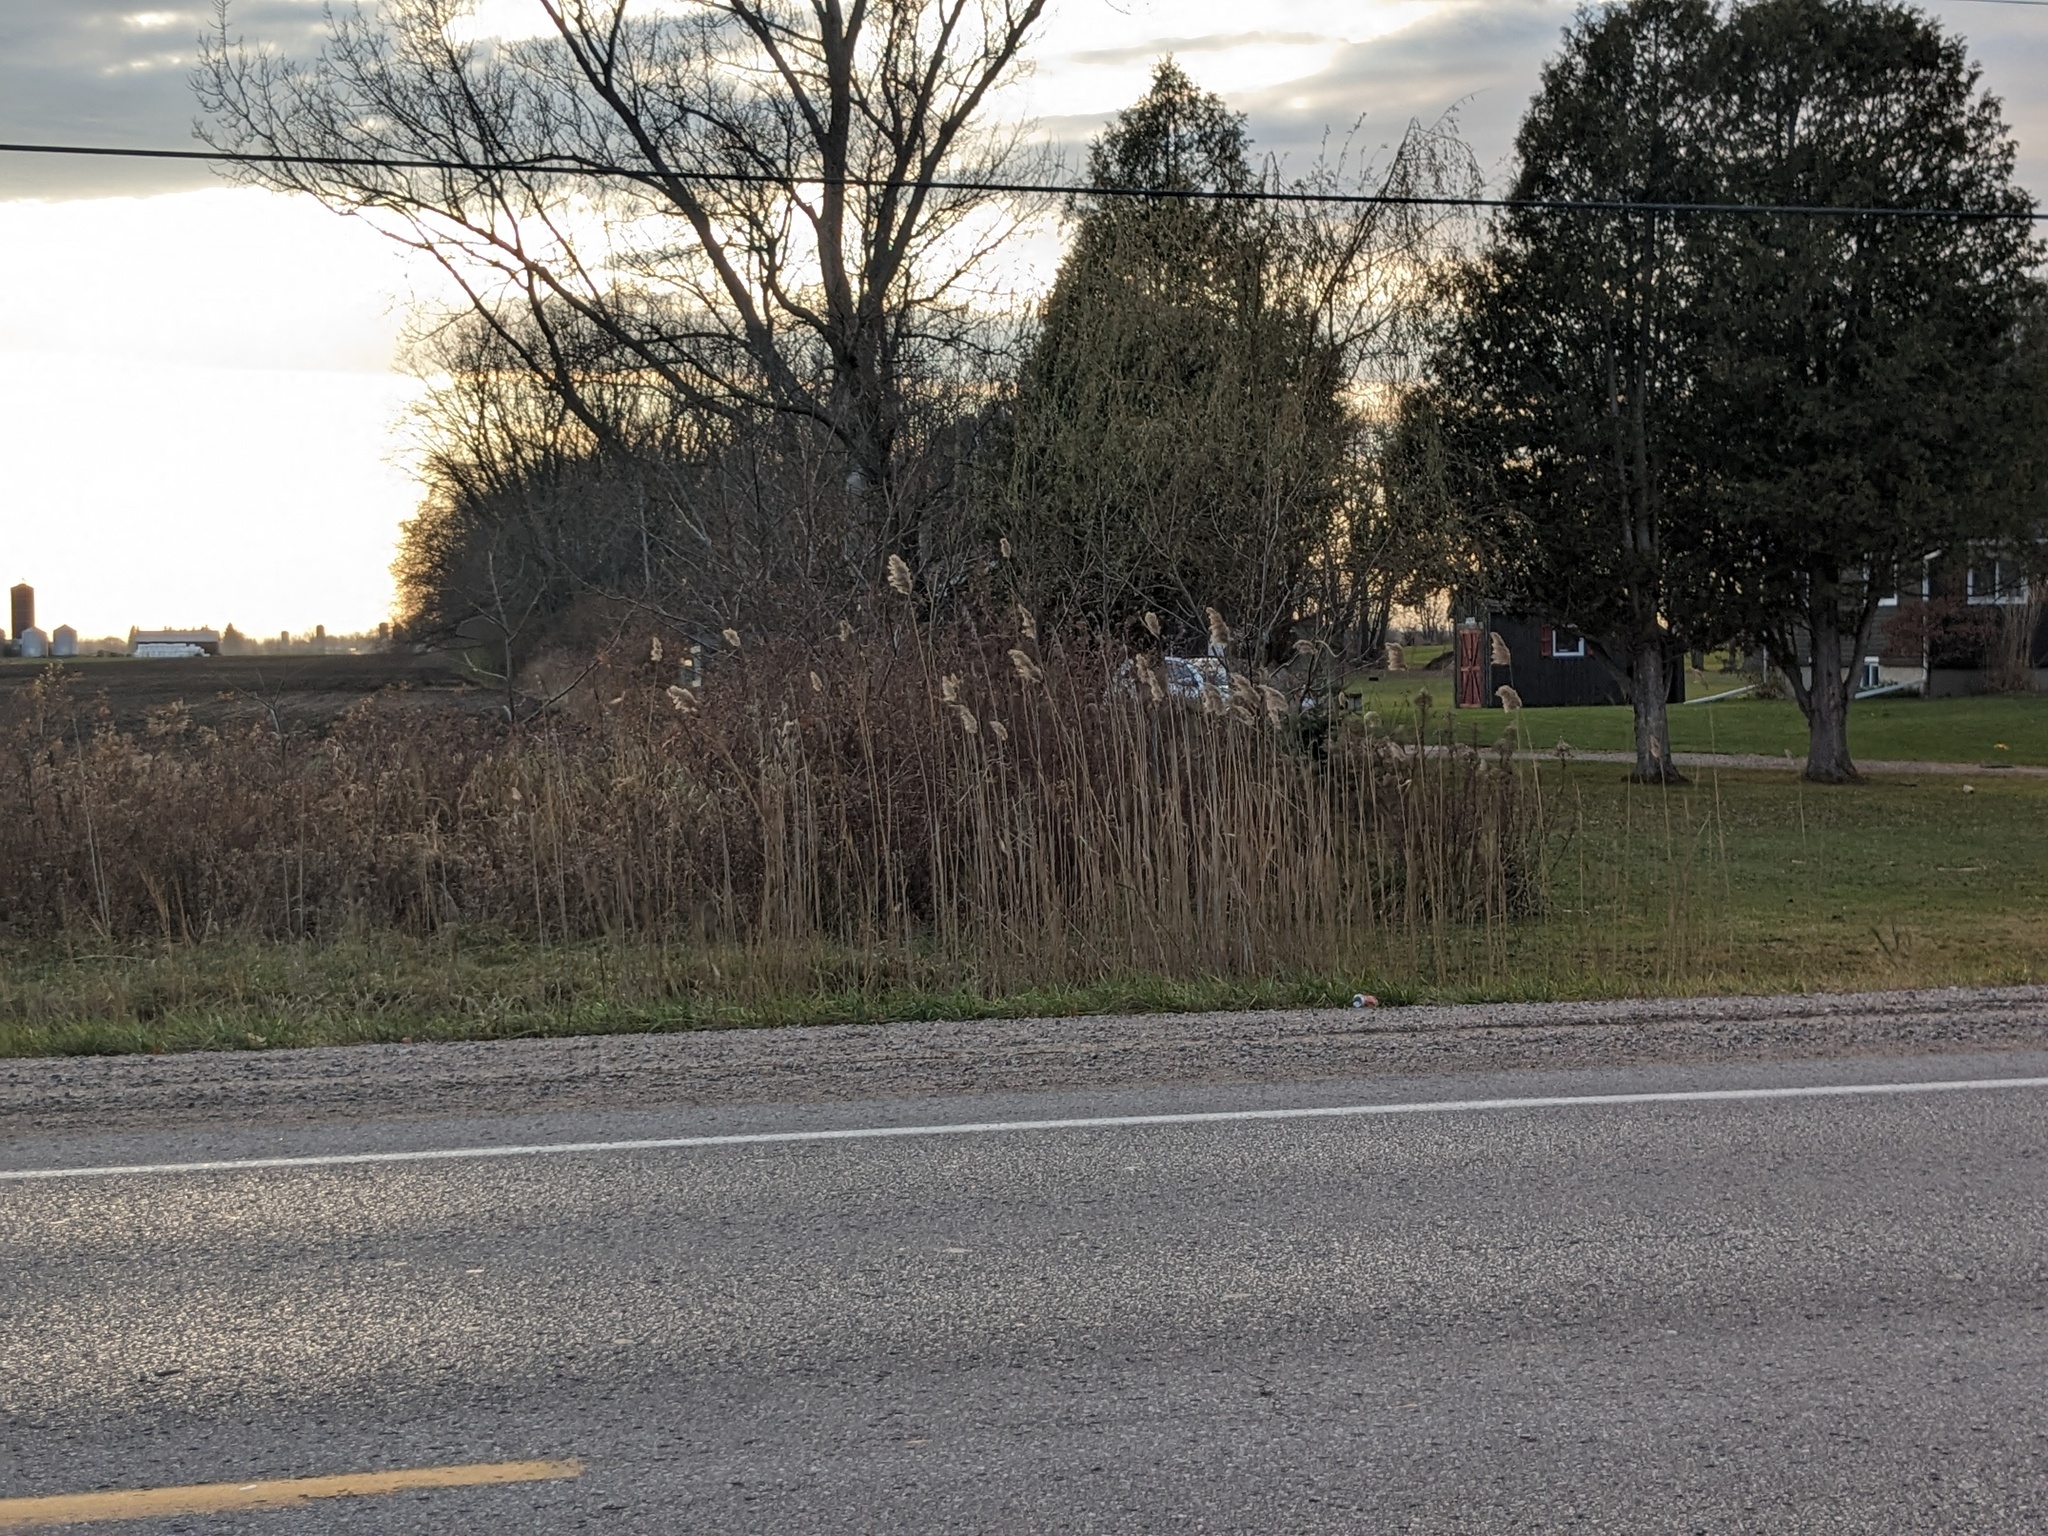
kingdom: Plantae
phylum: Tracheophyta
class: Liliopsida
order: Poales
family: Poaceae
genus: Phragmites
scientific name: Phragmites australis
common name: Common reed
